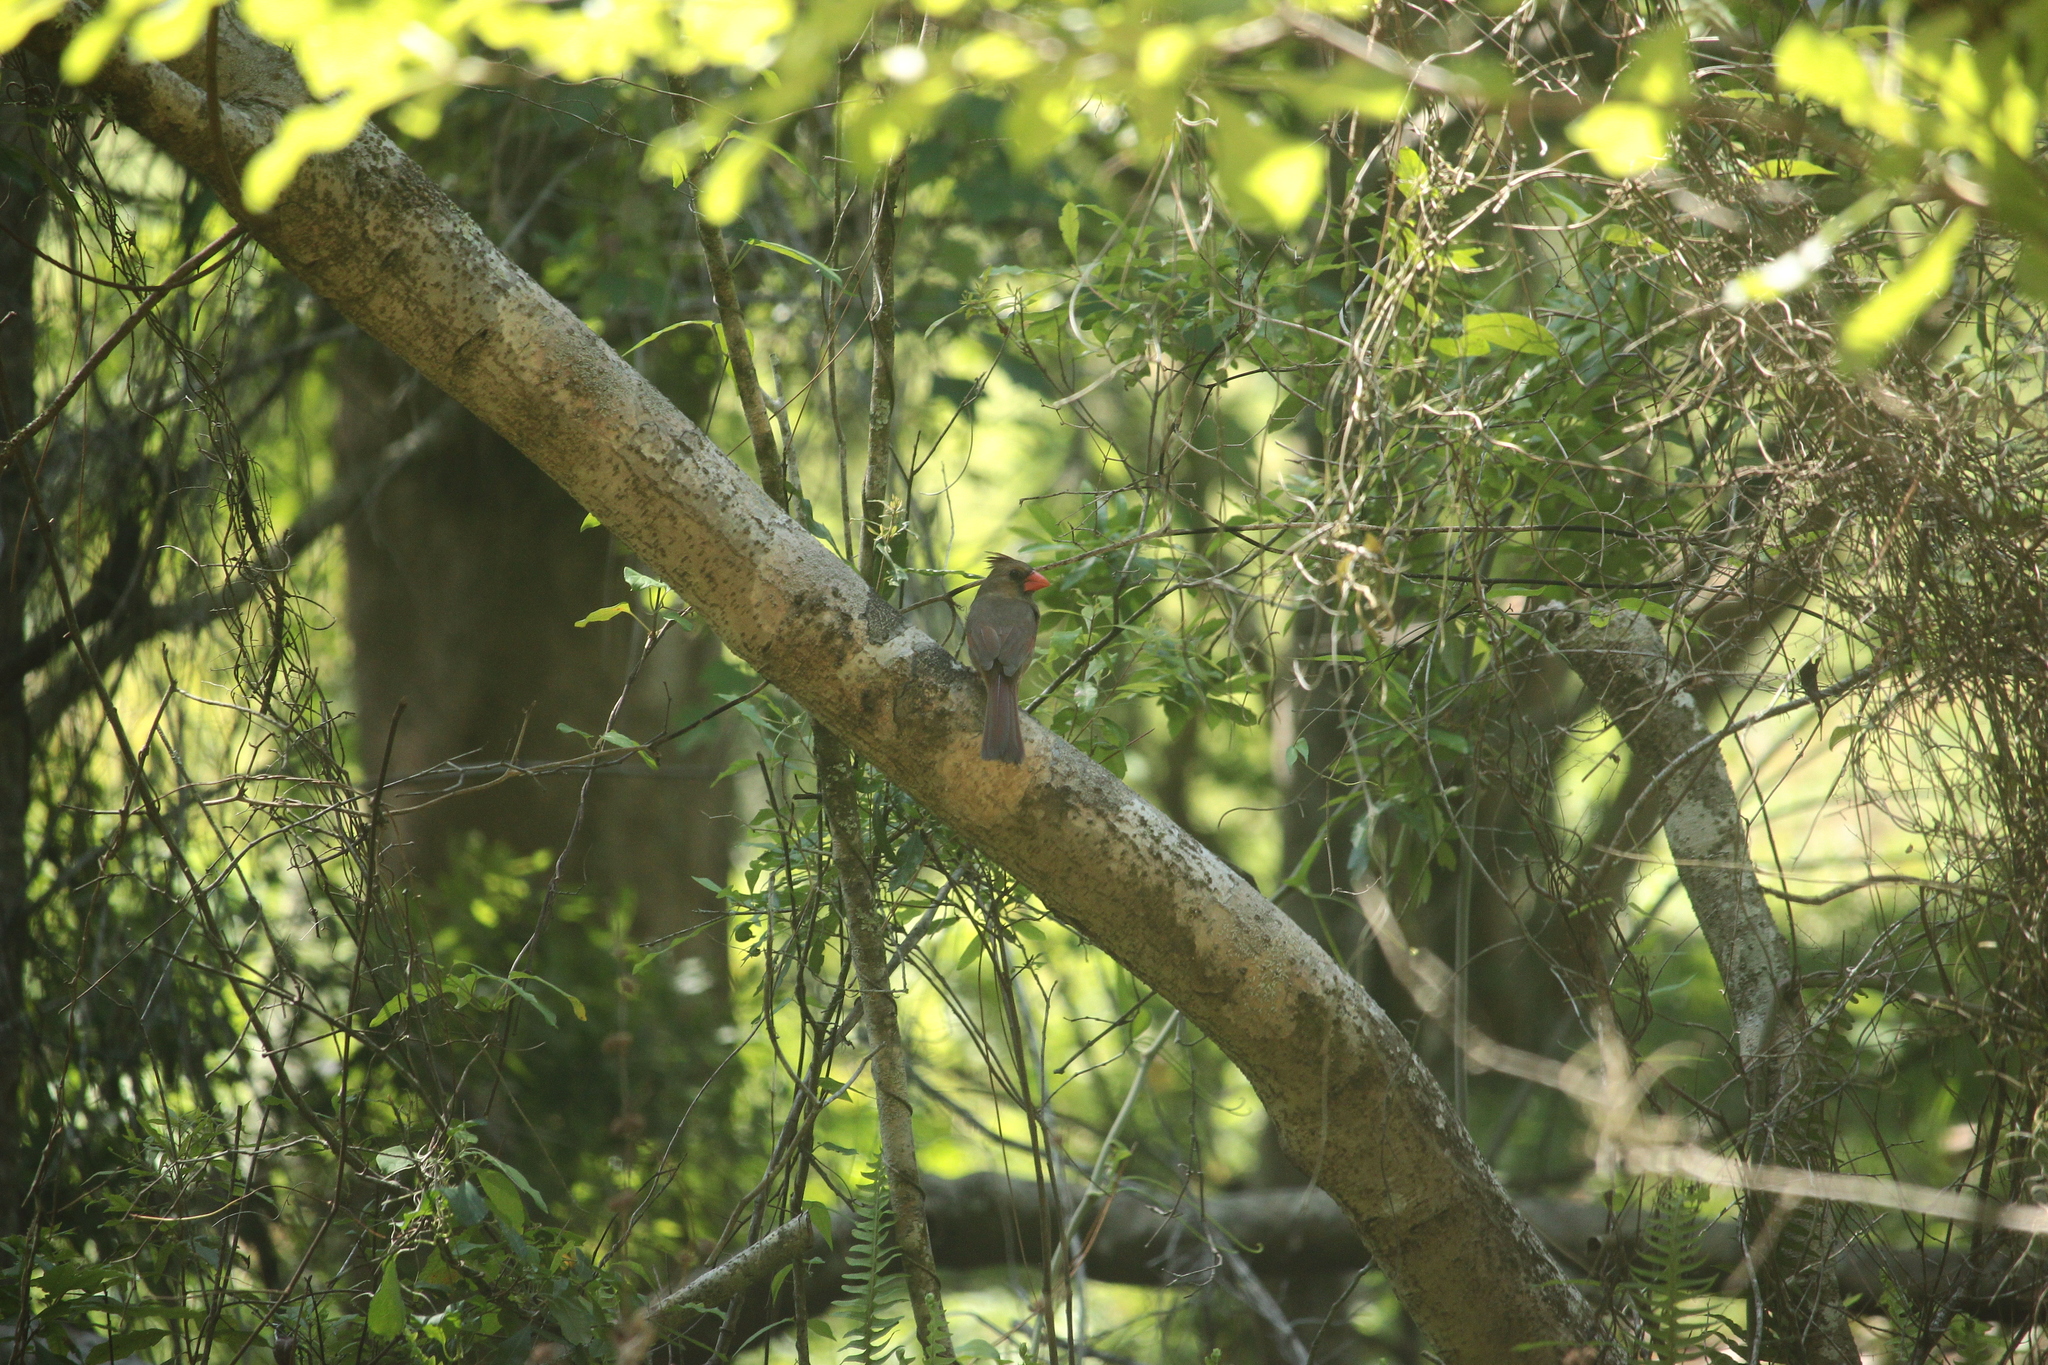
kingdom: Animalia
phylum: Chordata
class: Aves
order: Passeriformes
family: Cardinalidae
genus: Cardinalis
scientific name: Cardinalis cardinalis
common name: Northern cardinal
